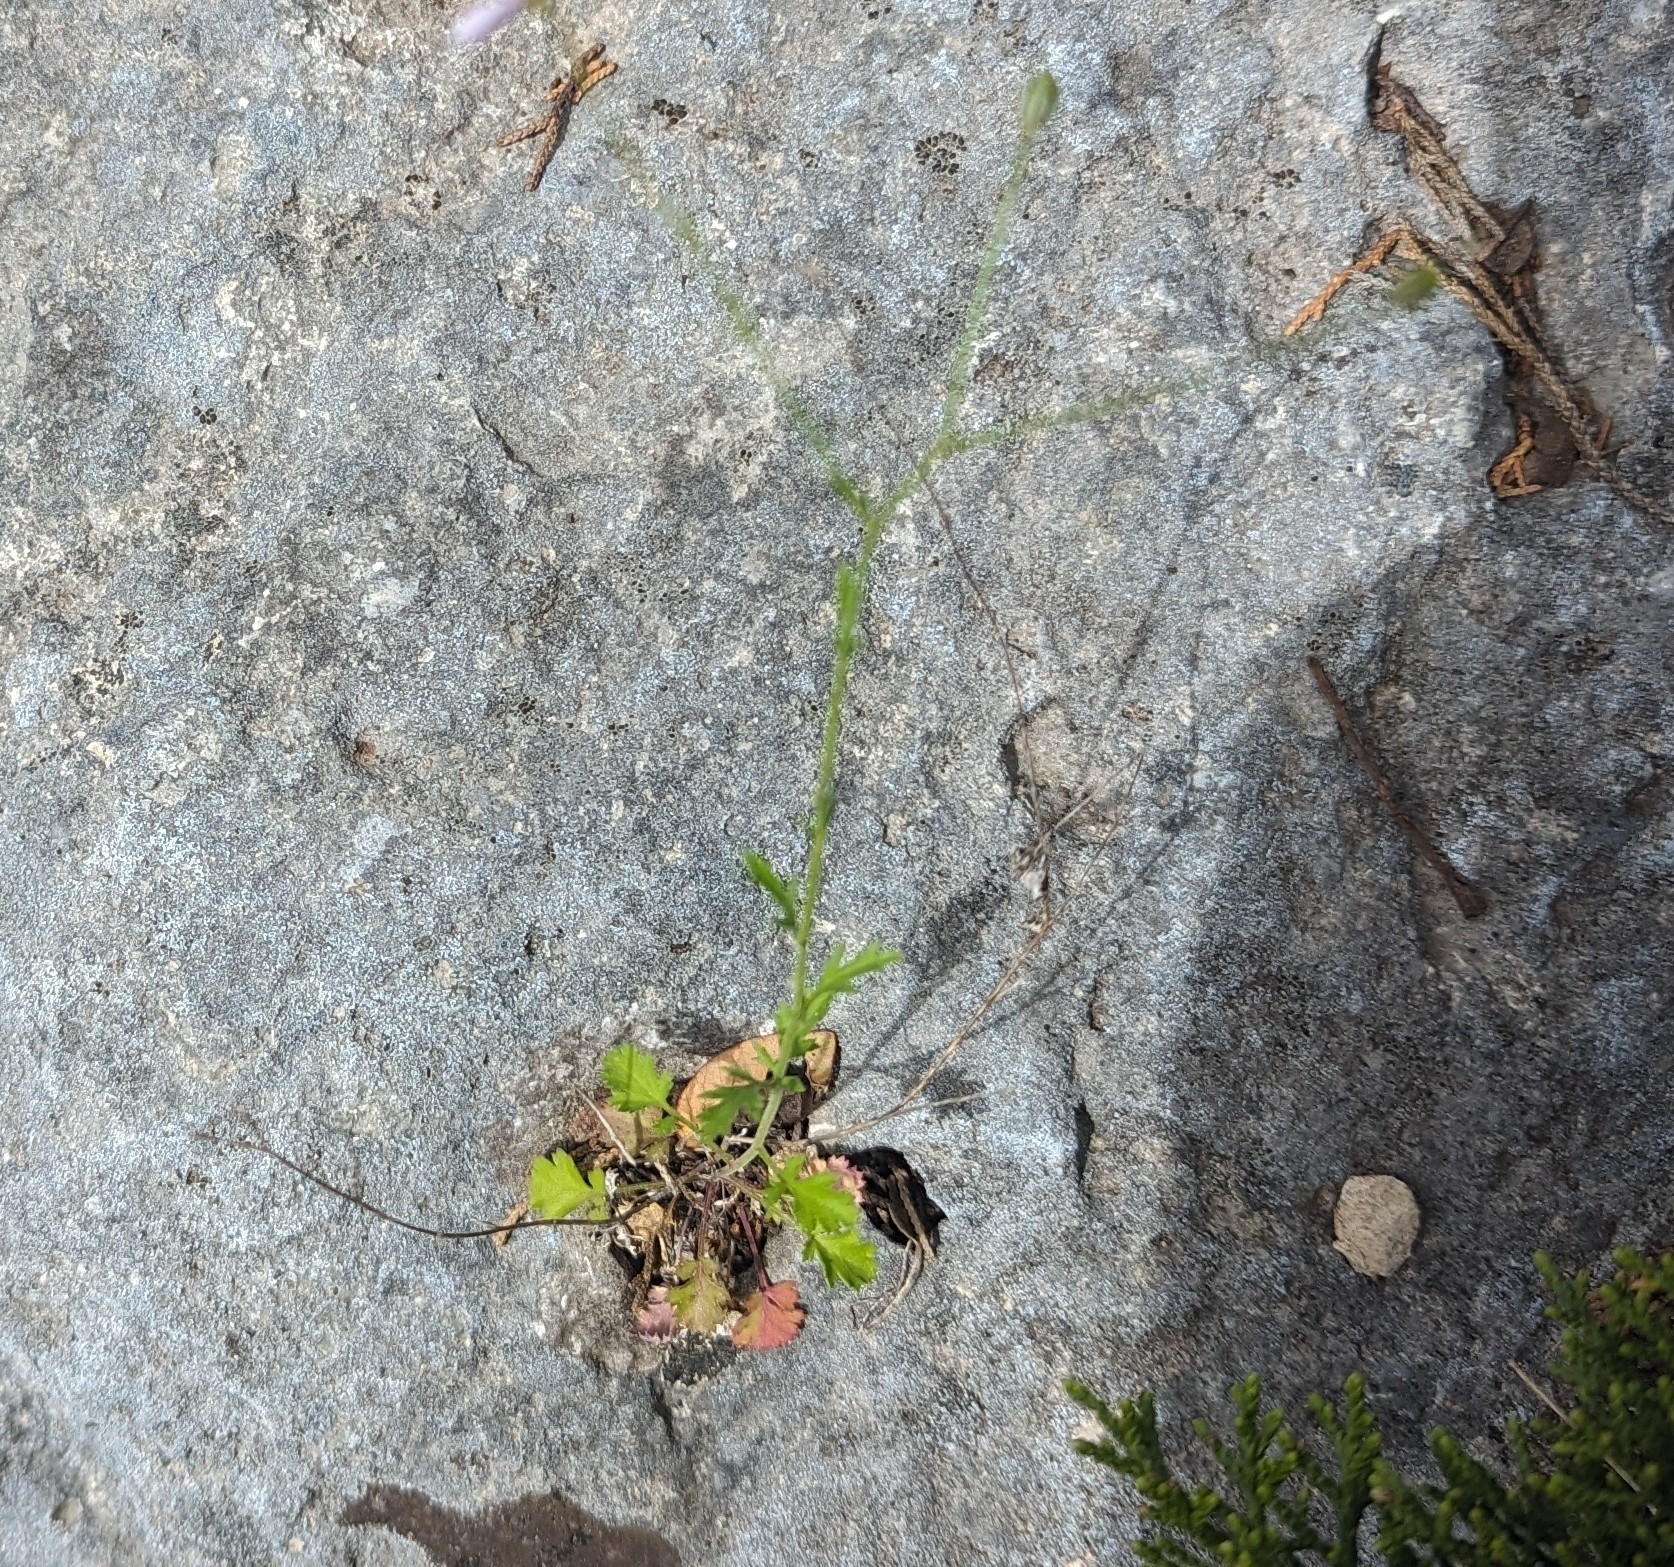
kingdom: Plantae
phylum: Tracheophyta
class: Magnoliopsida
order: Ericales
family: Polemoniaceae
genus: Giliastrum
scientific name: Giliastrum incisum
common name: Splitleaf gilia
